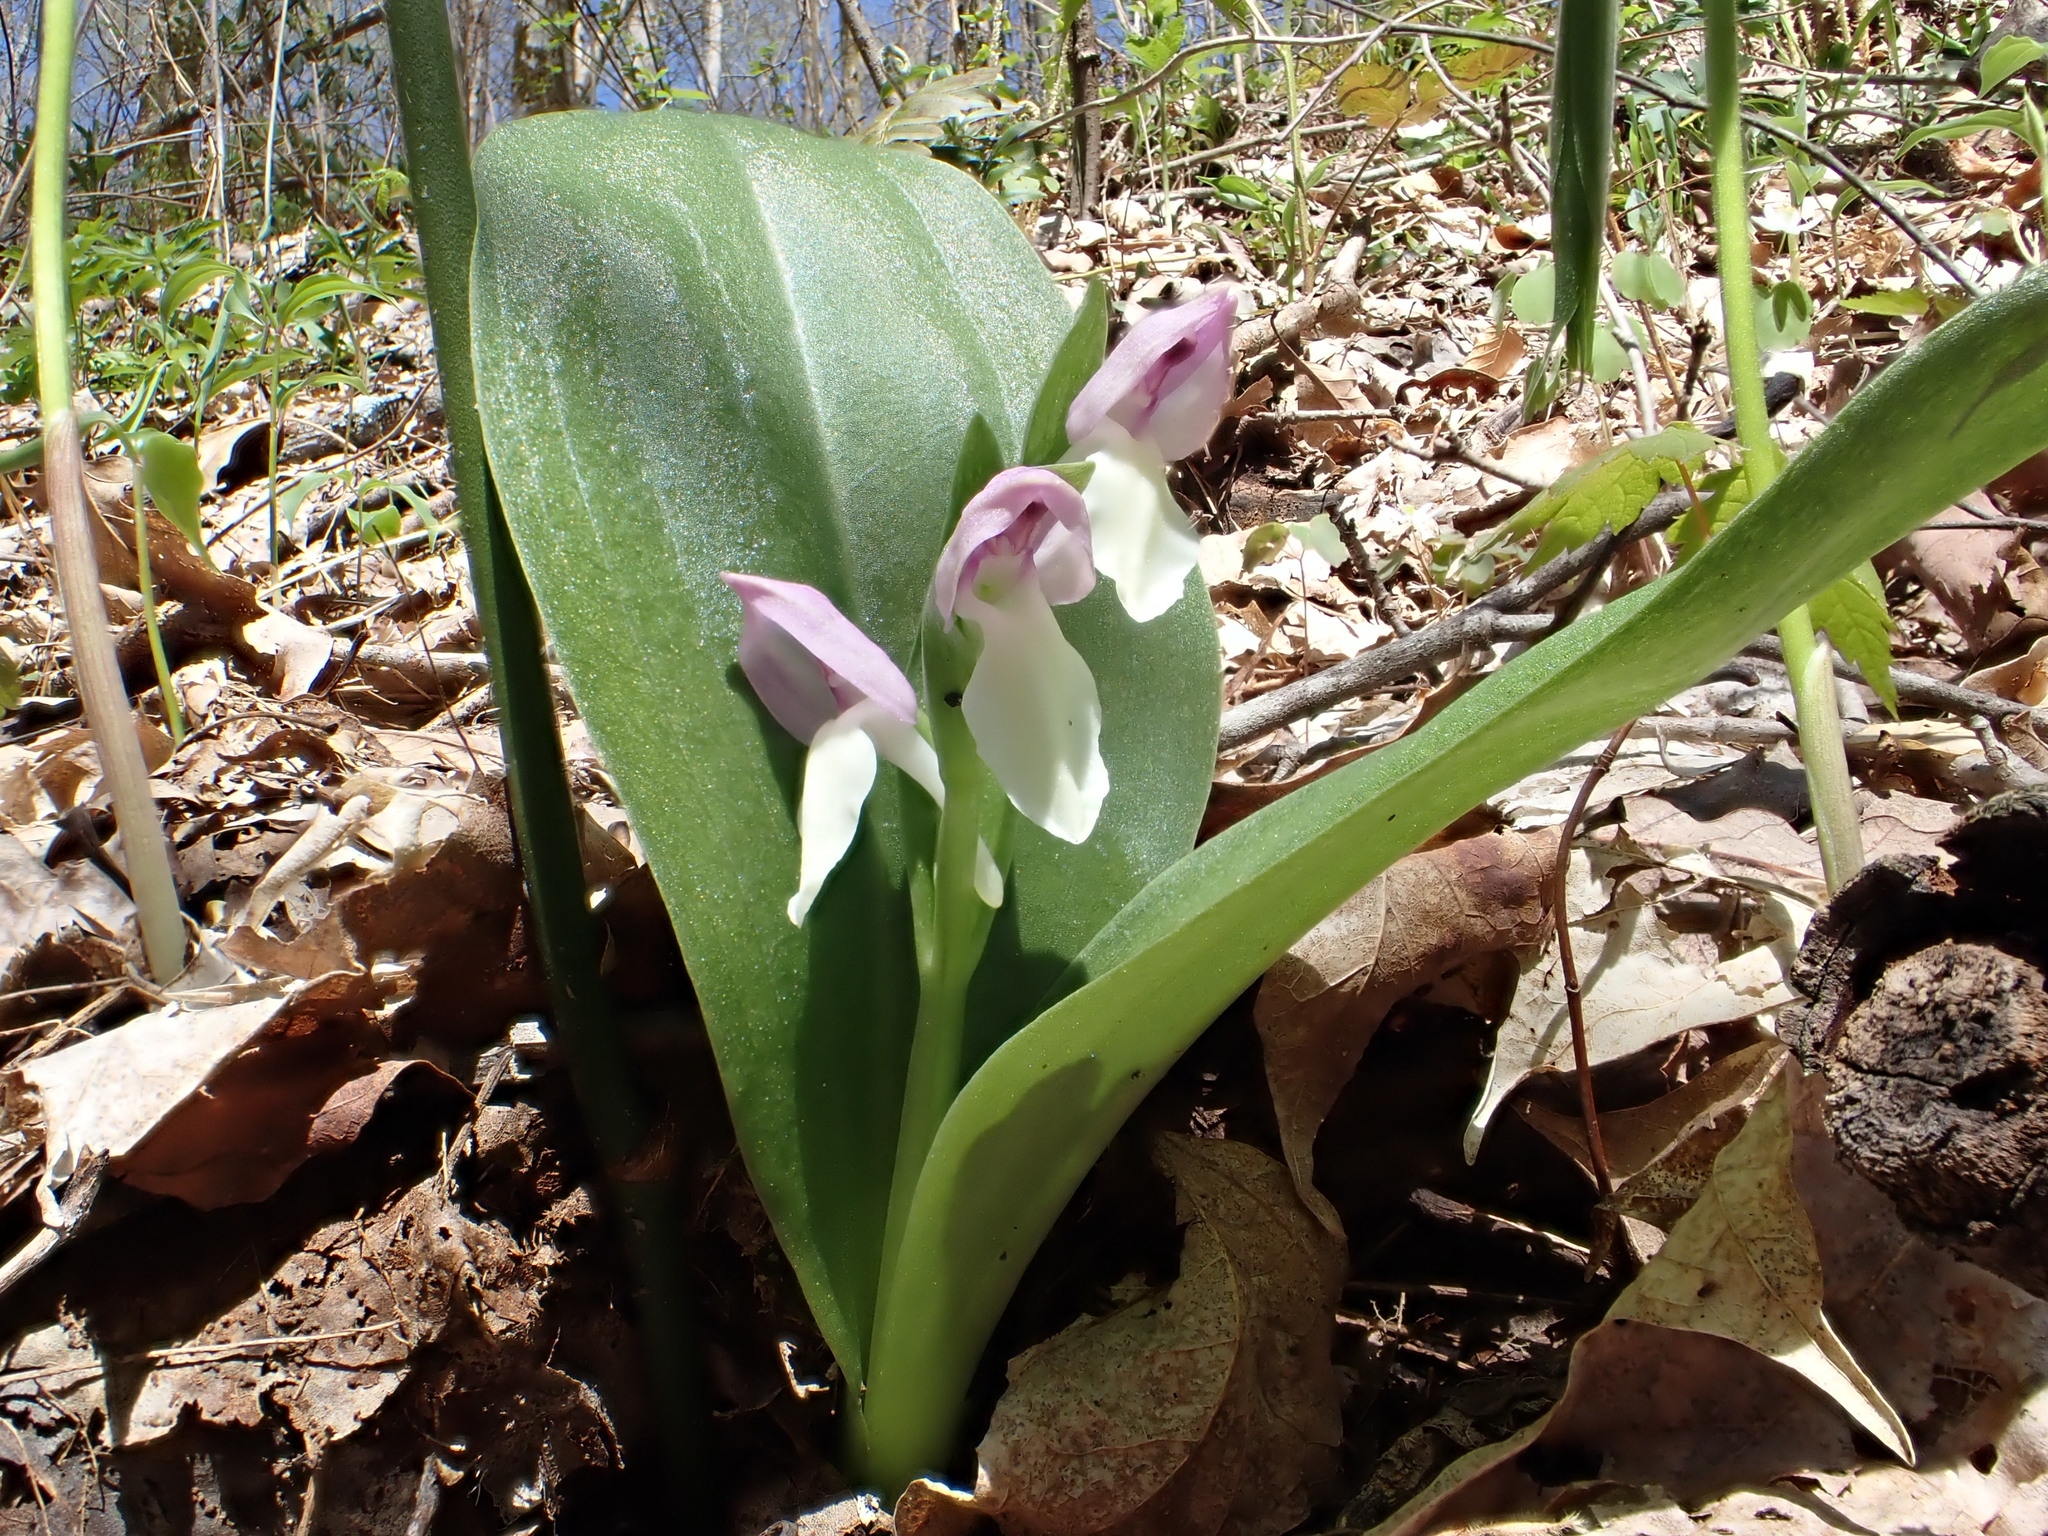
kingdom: Plantae
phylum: Tracheophyta
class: Liliopsida
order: Asparagales
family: Orchidaceae
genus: Galearis
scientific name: Galearis spectabilis
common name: Purple-hooded orchis
